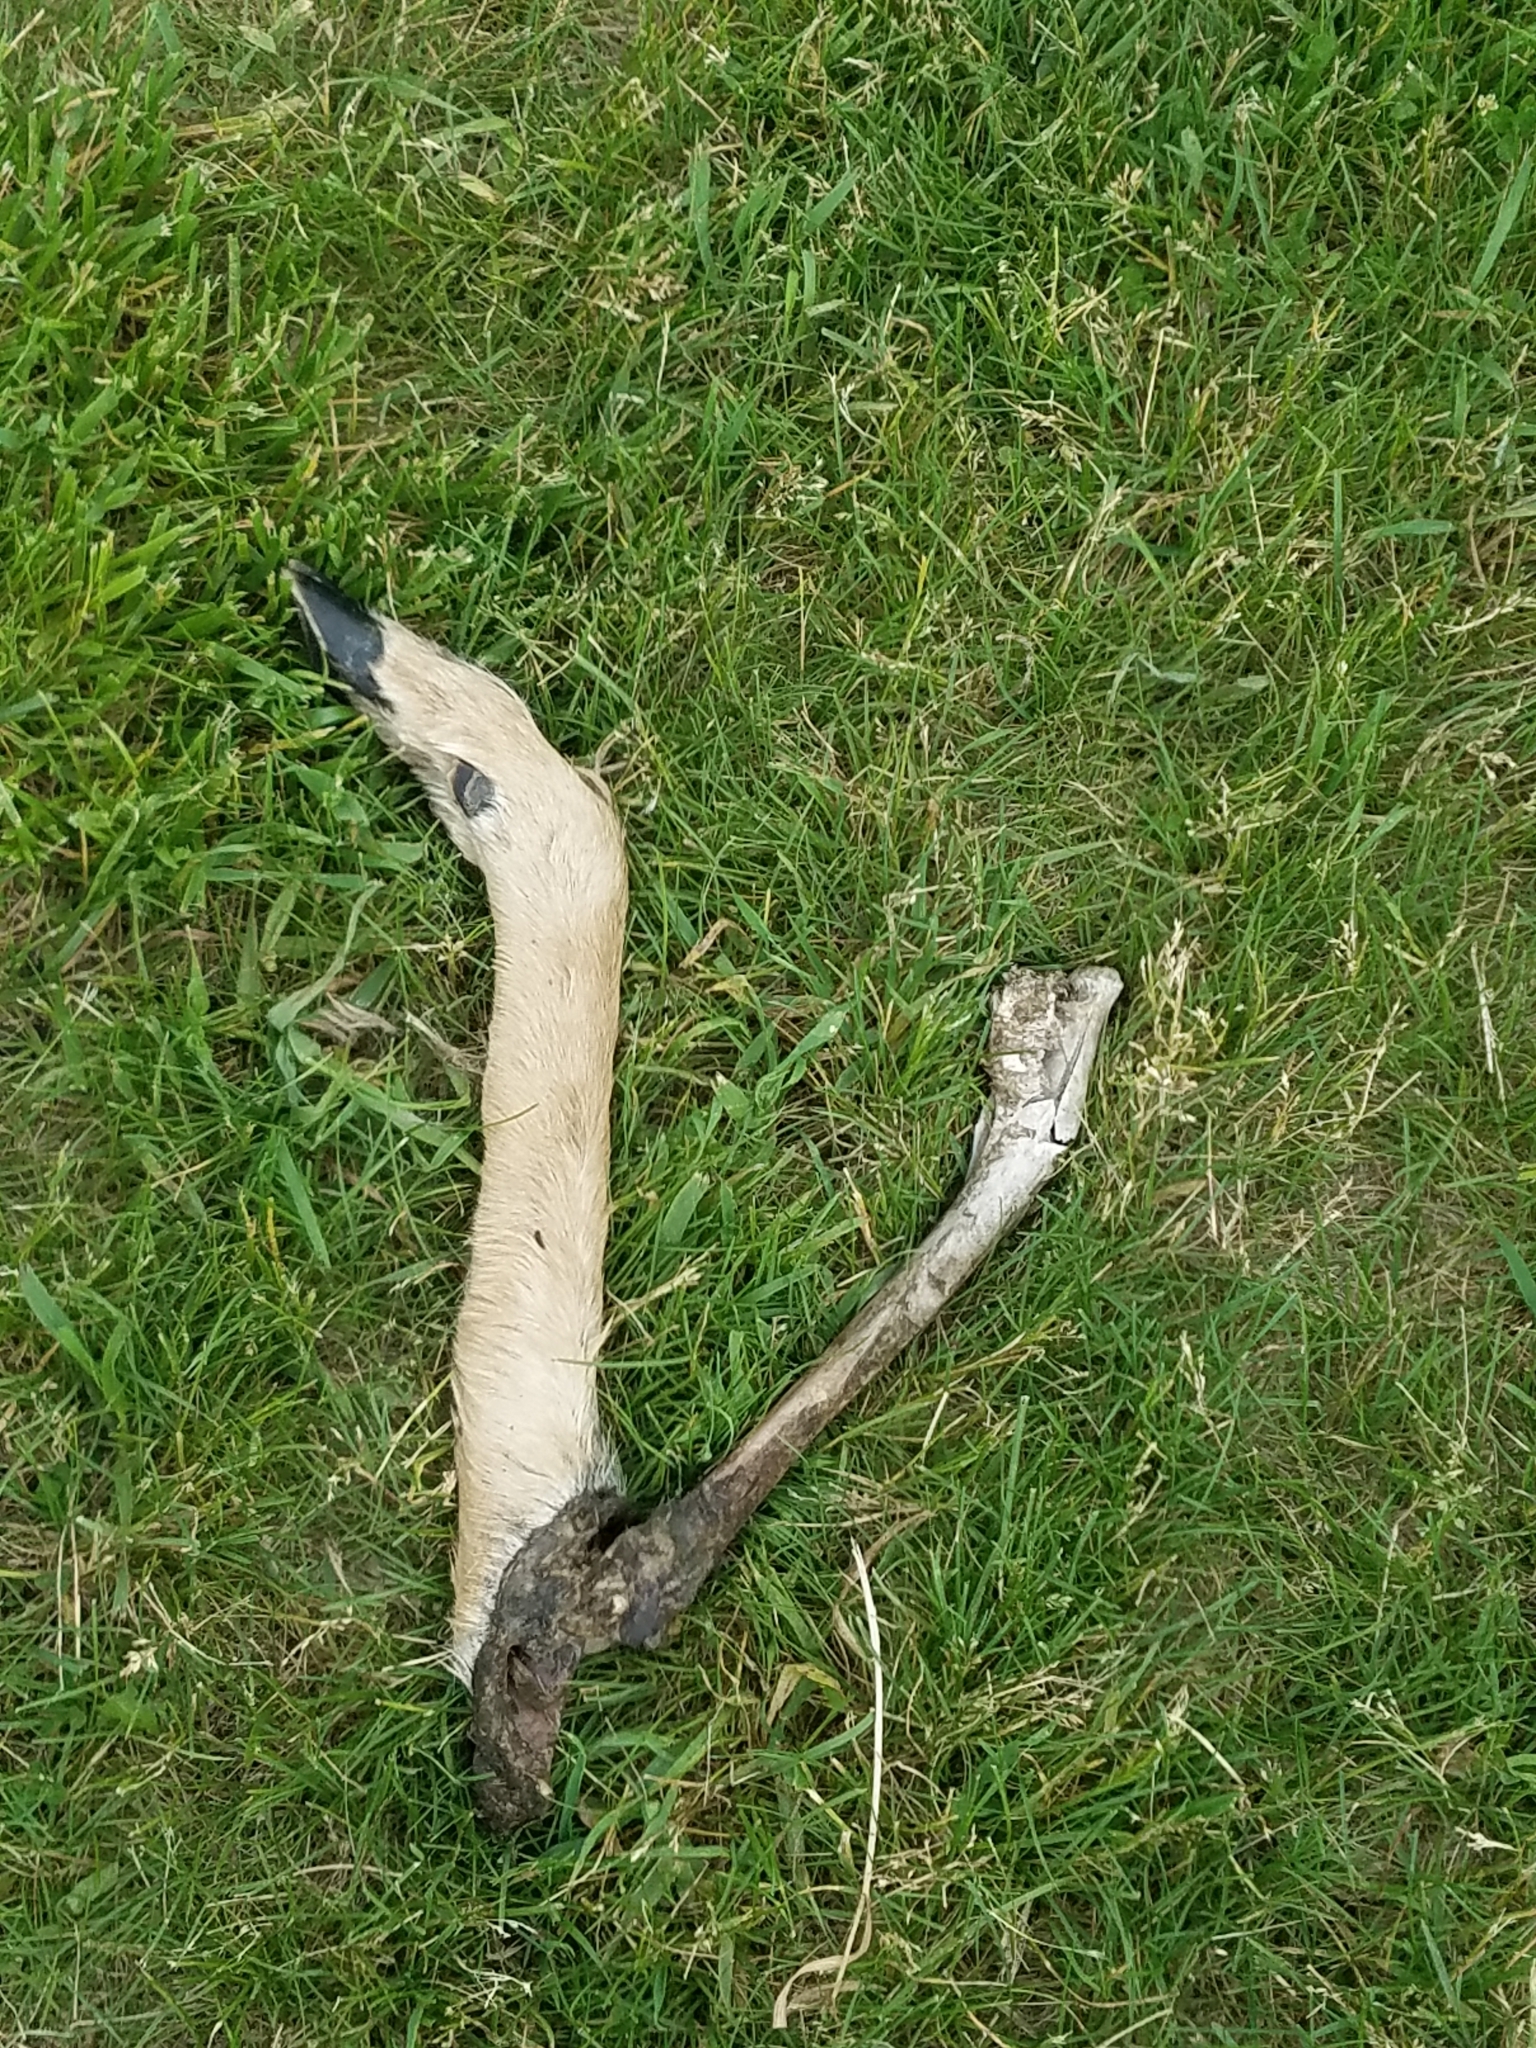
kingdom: Animalia
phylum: Chordata
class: Mammalia
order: Artiodactyla
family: Cervidae
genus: Odocoileus
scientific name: Odocoileus virginianus
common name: White-tailed deer
